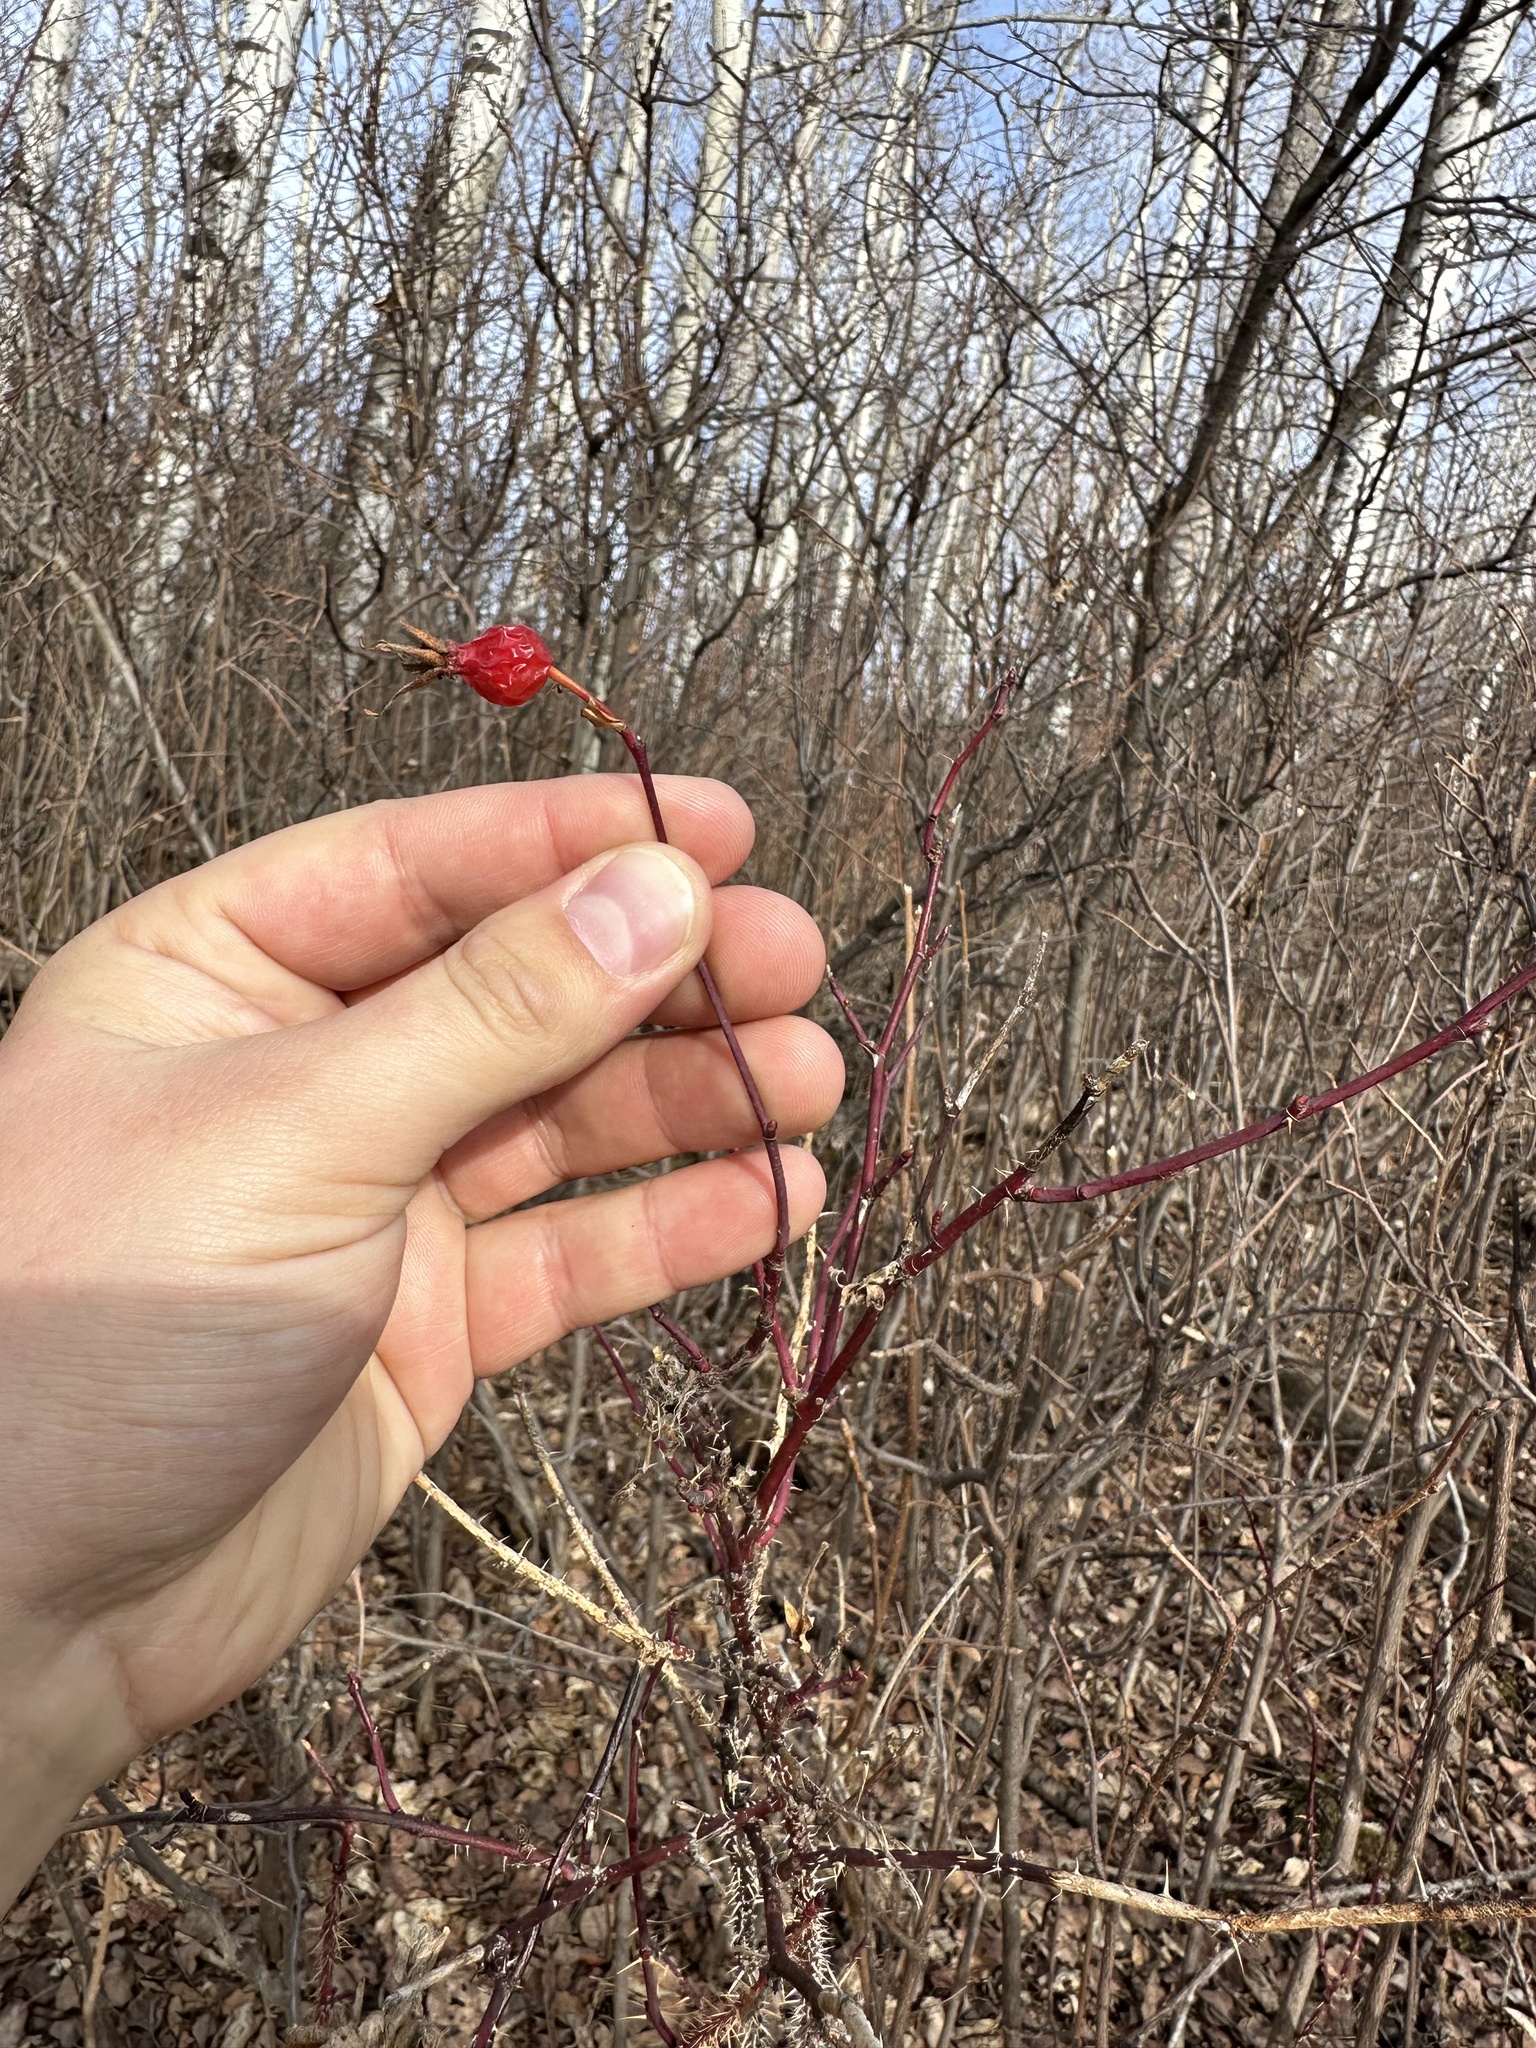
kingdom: Plantae
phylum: Tracheophyta
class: Magnoliopsida
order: Rosales
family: Rosaceae
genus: Rosa
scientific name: Rosa woodsii
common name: Woods's rose
